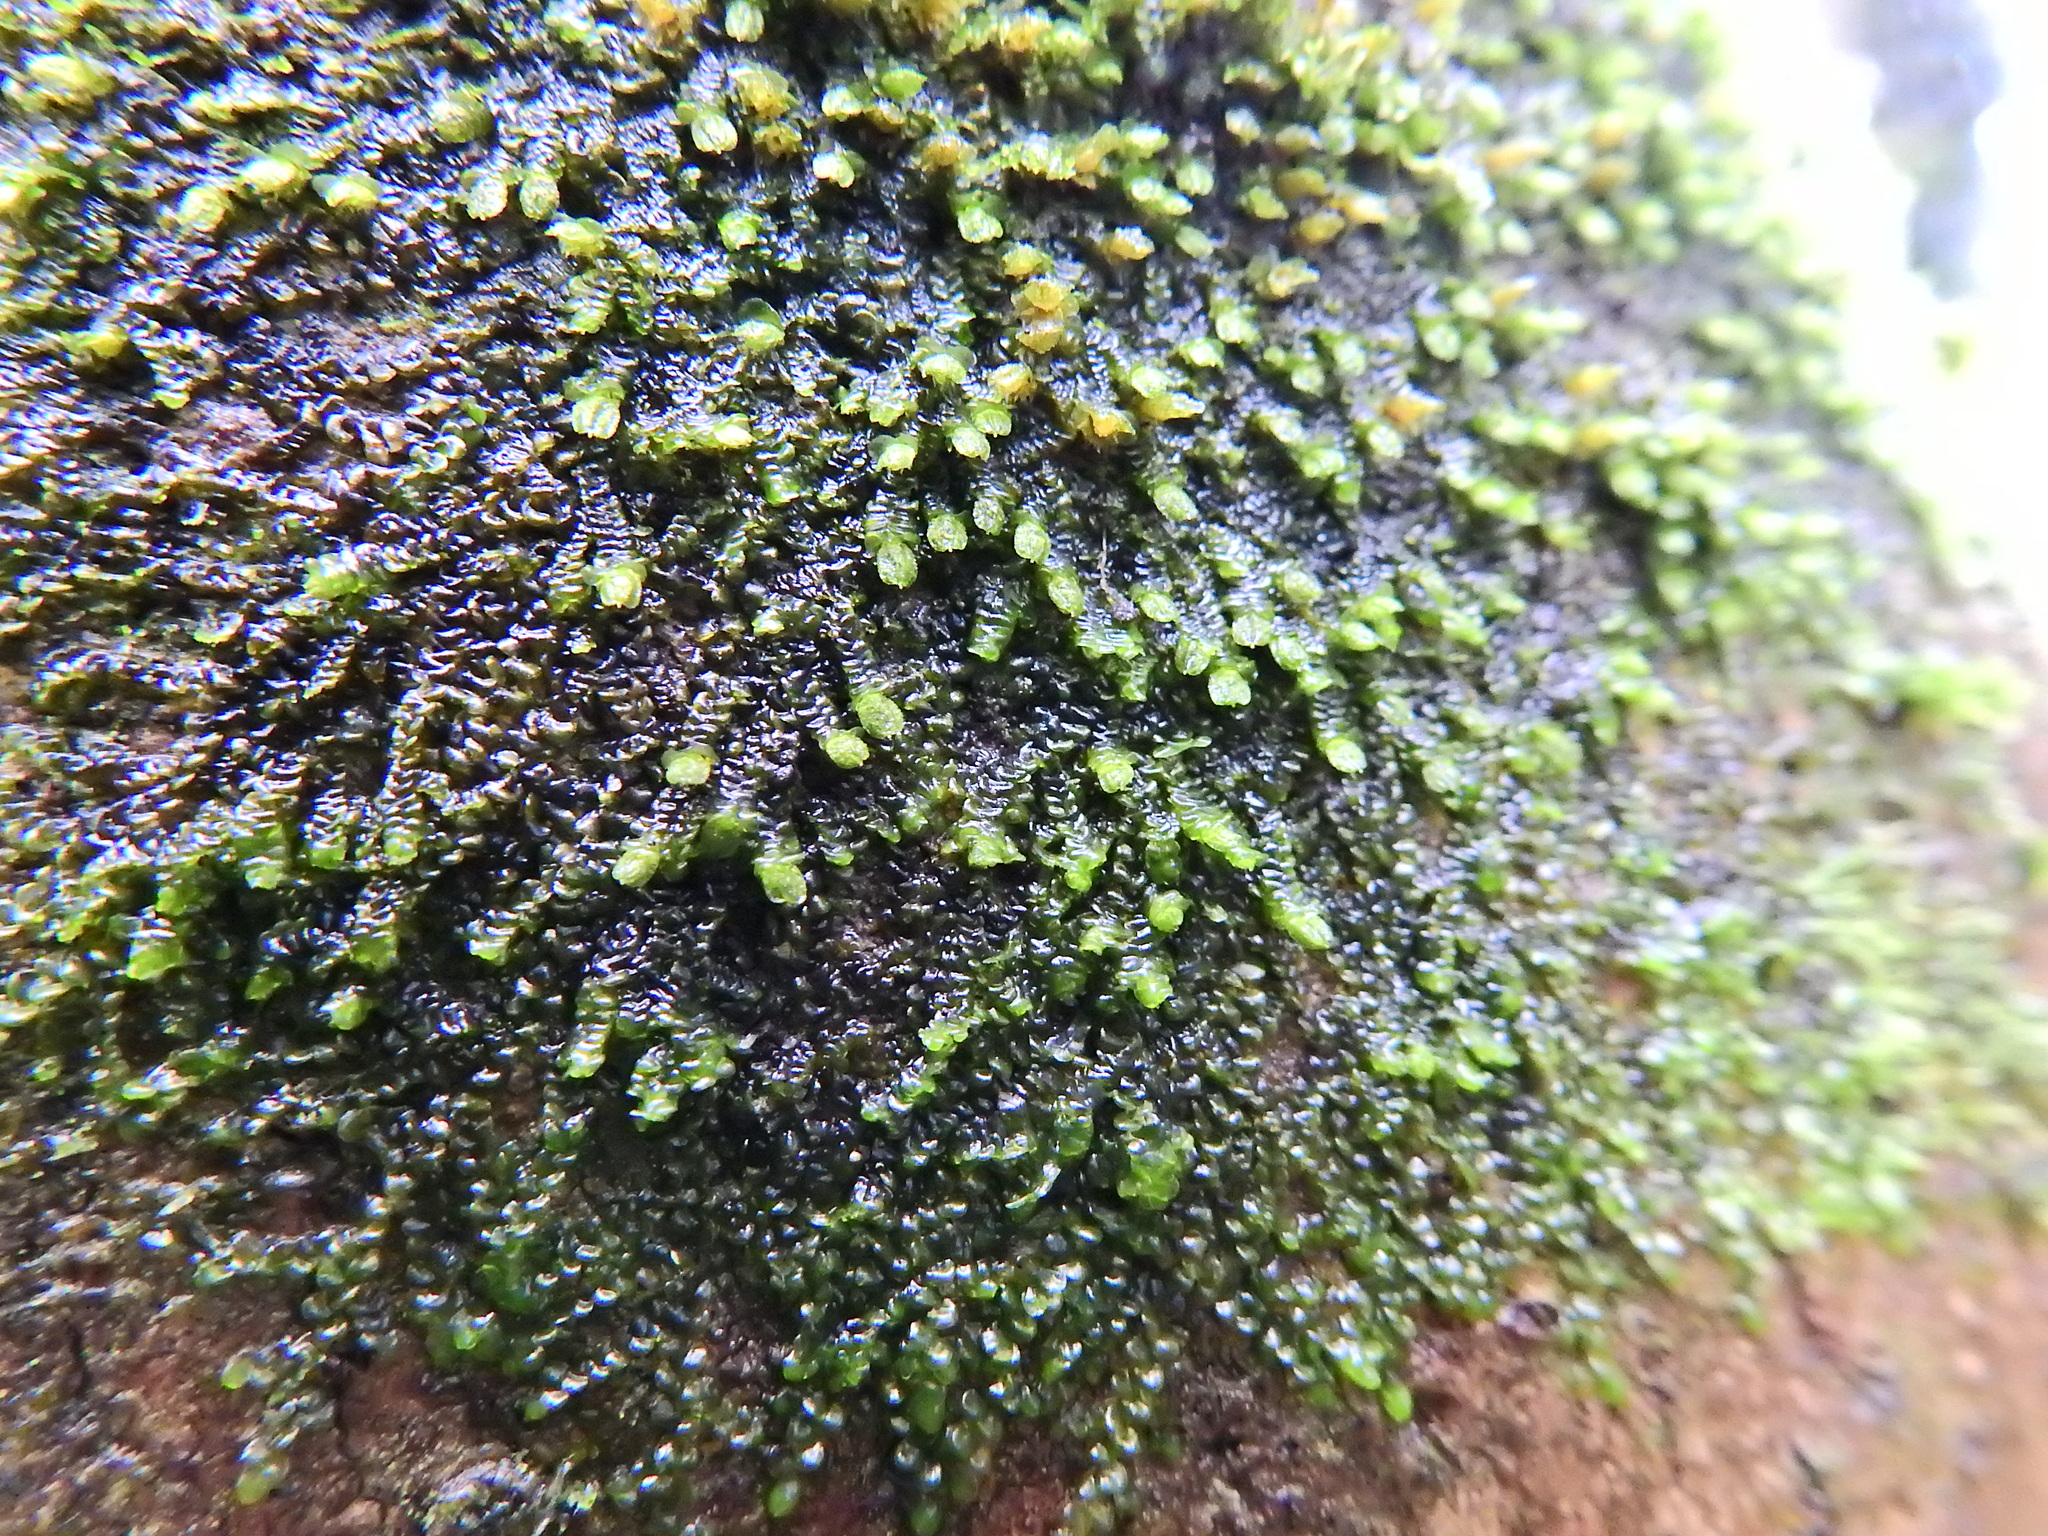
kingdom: Plantae
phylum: Marchantiophyta
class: Jungermanniopsida
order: Porellales
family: Frullaniaceae
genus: Frullania
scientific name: Frullania dilatata
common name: Dilated scalewort
